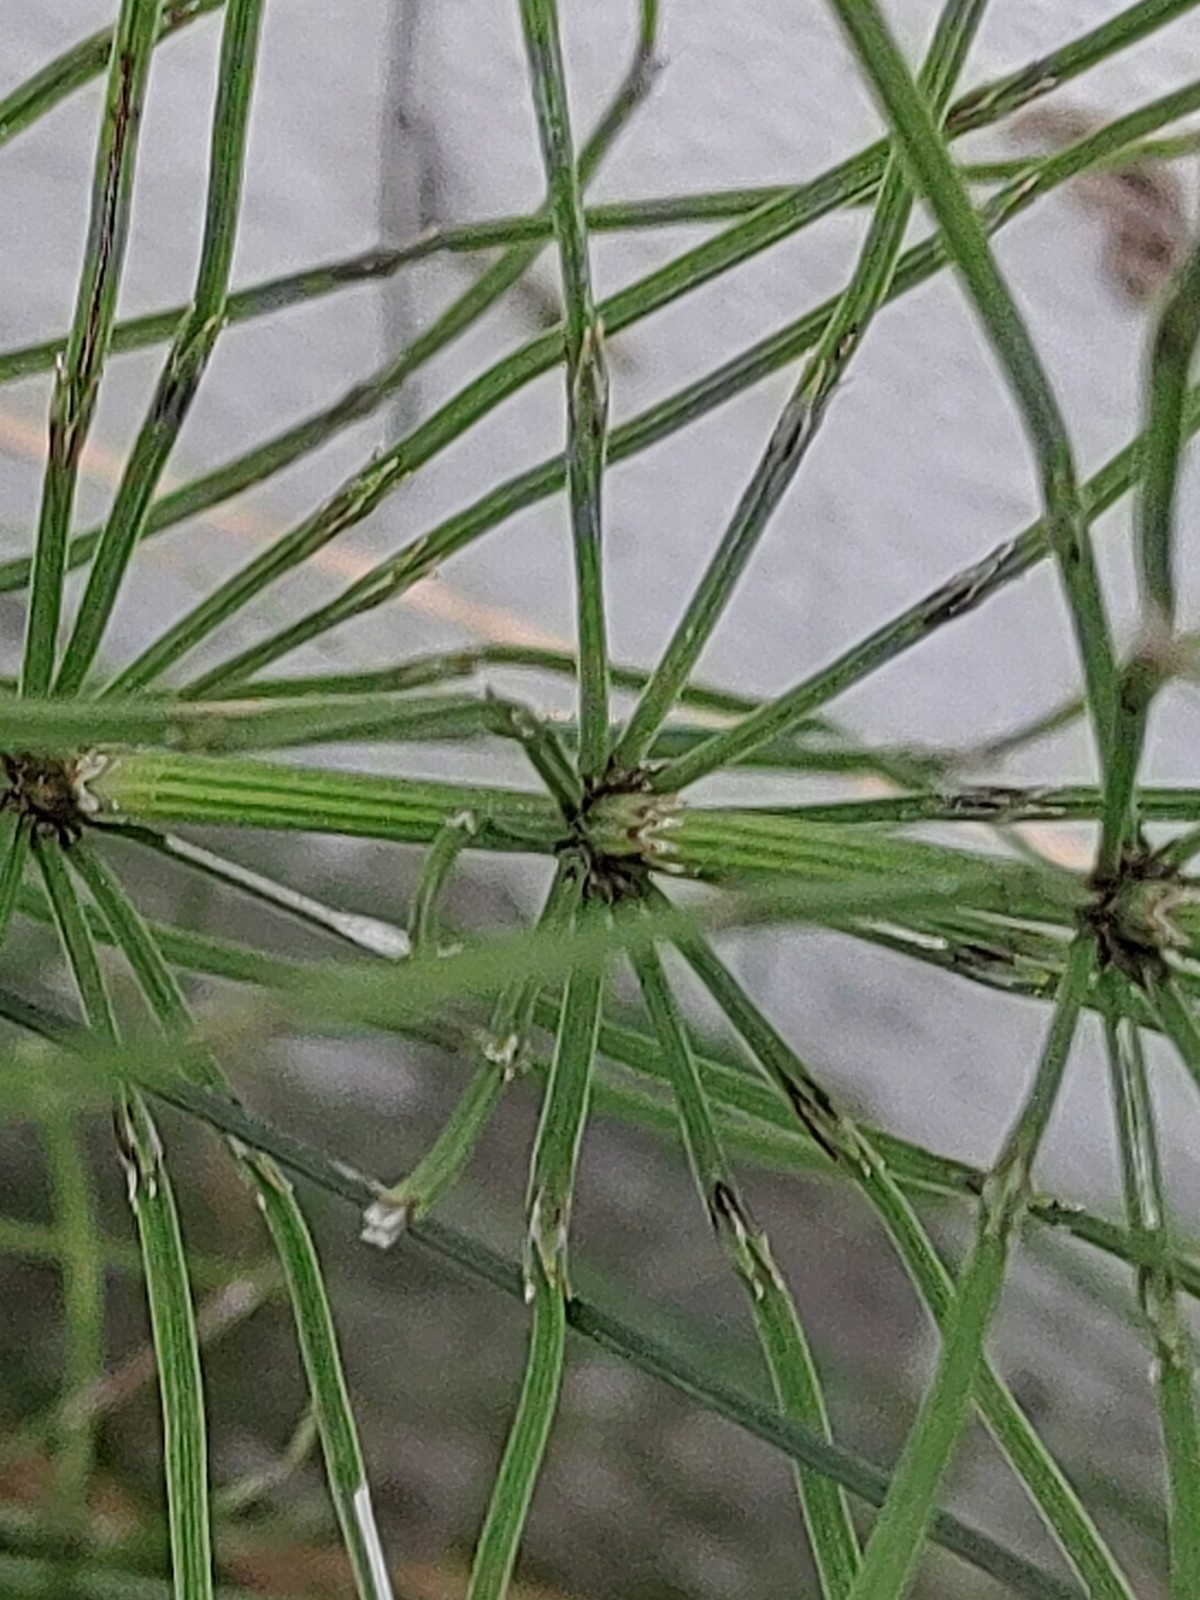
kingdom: Plantae
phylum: Tracheophyta
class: Polypodiopsida
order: Equisetales
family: Equisetaceae
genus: Equisetum
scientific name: Equisetum arvense
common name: Field horsetail
